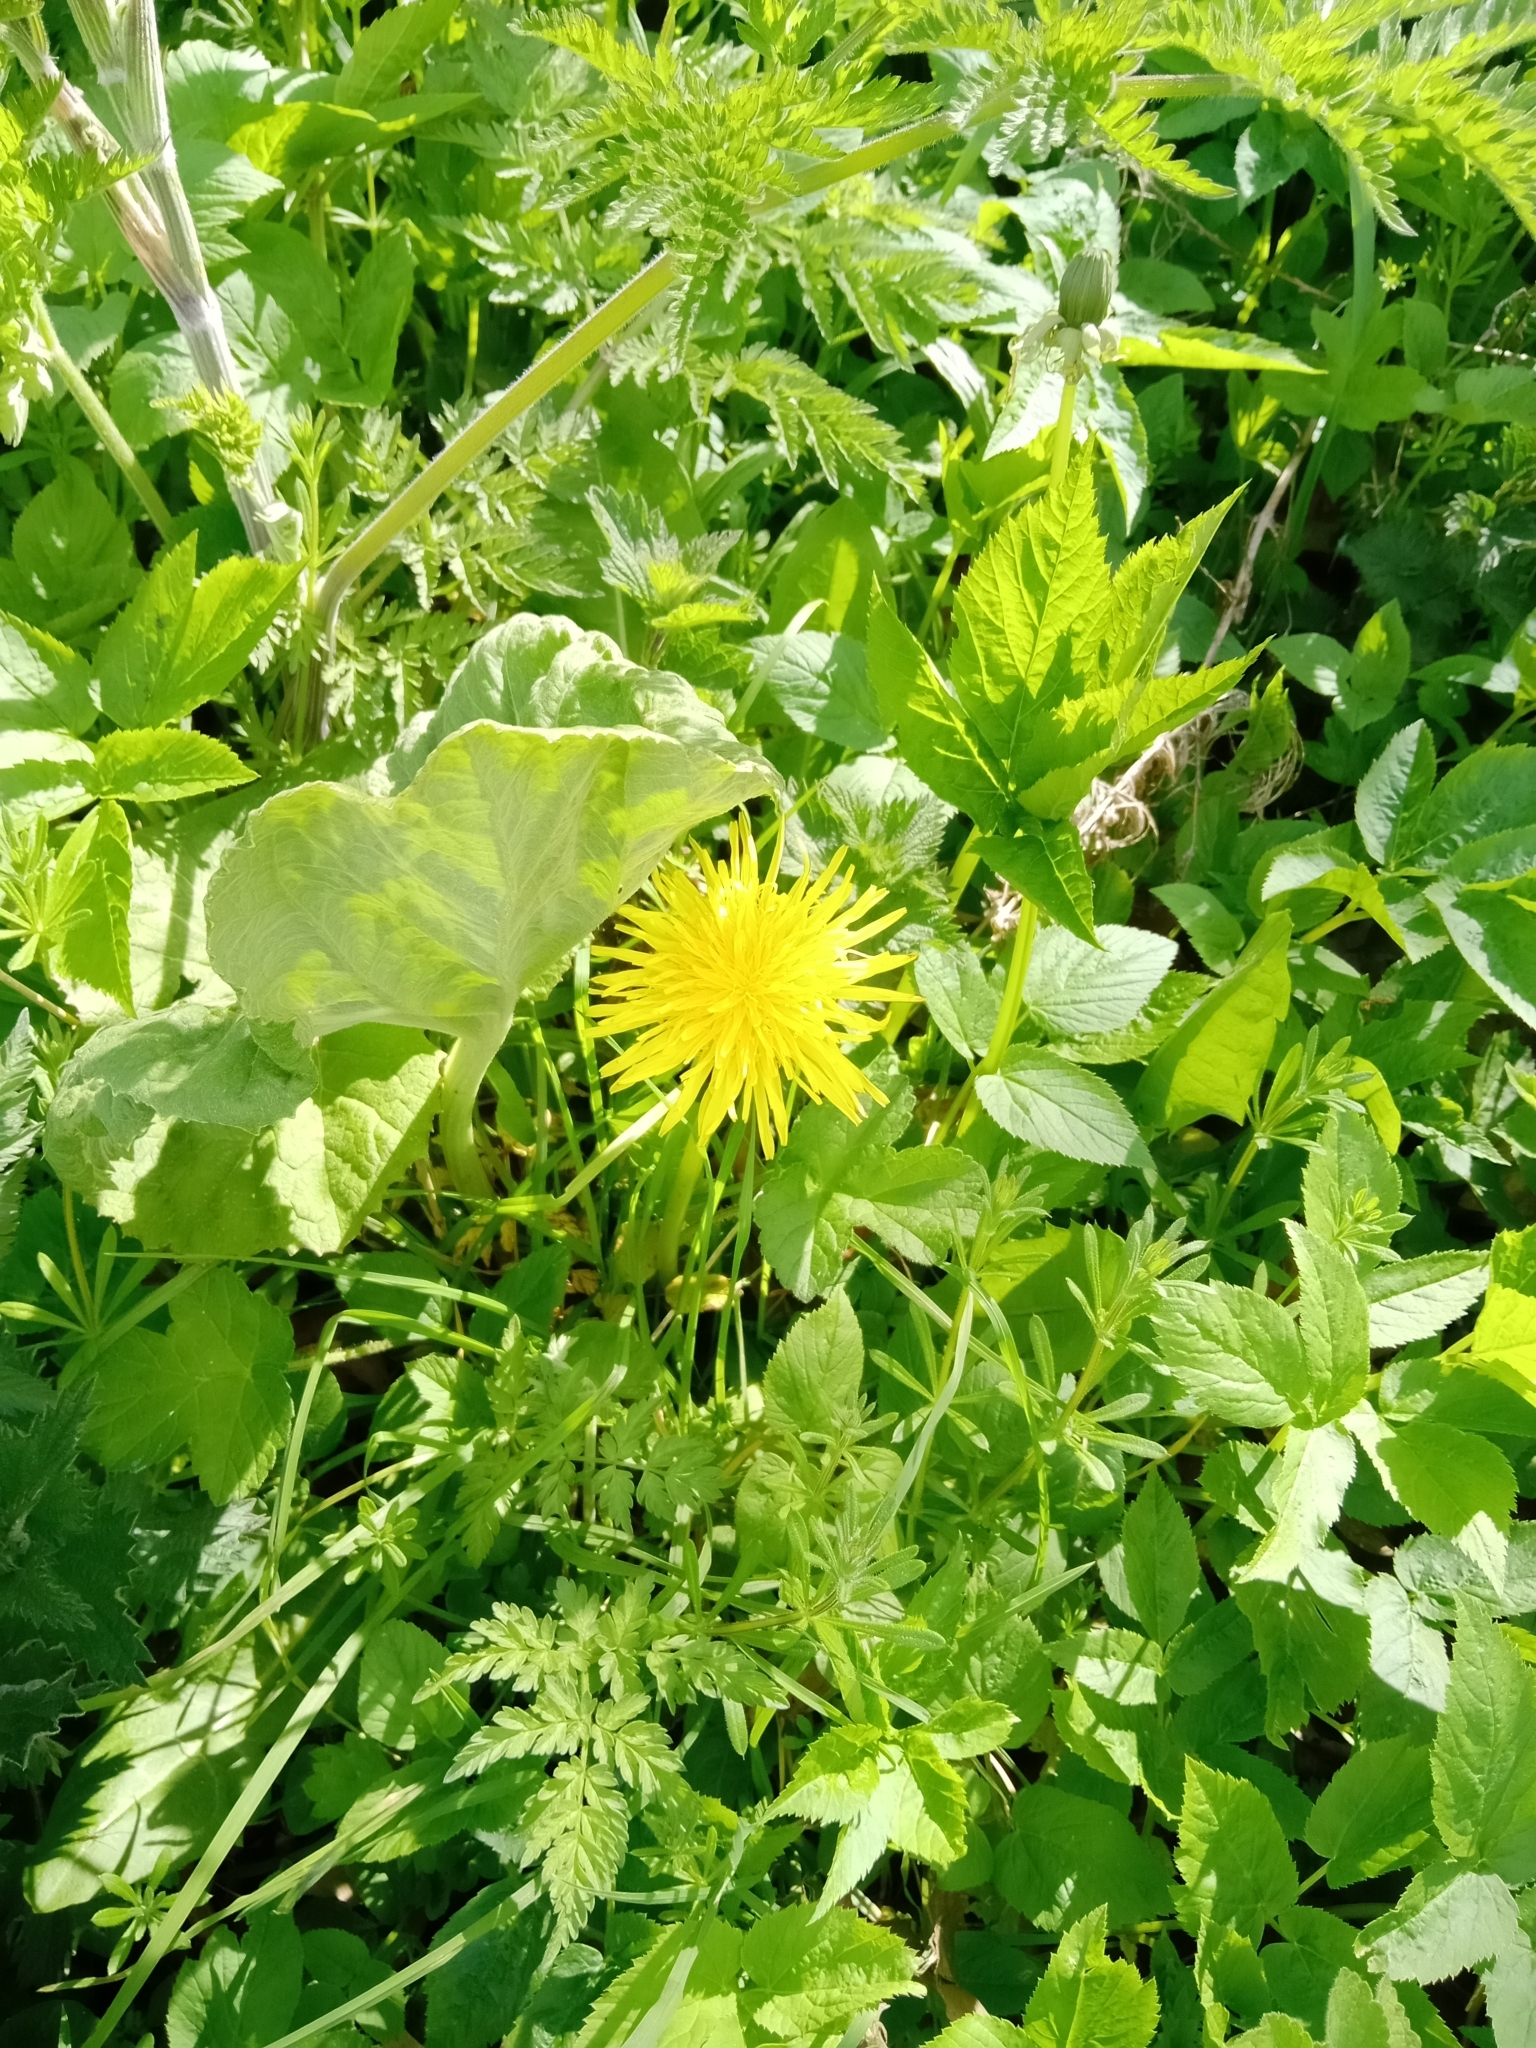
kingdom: Plantae
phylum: Tracheophyta
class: Magnoliopsida
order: Asterales
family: Asteraceae
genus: Taraxacum
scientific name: Taraxacum officinale
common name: Common dandelion
